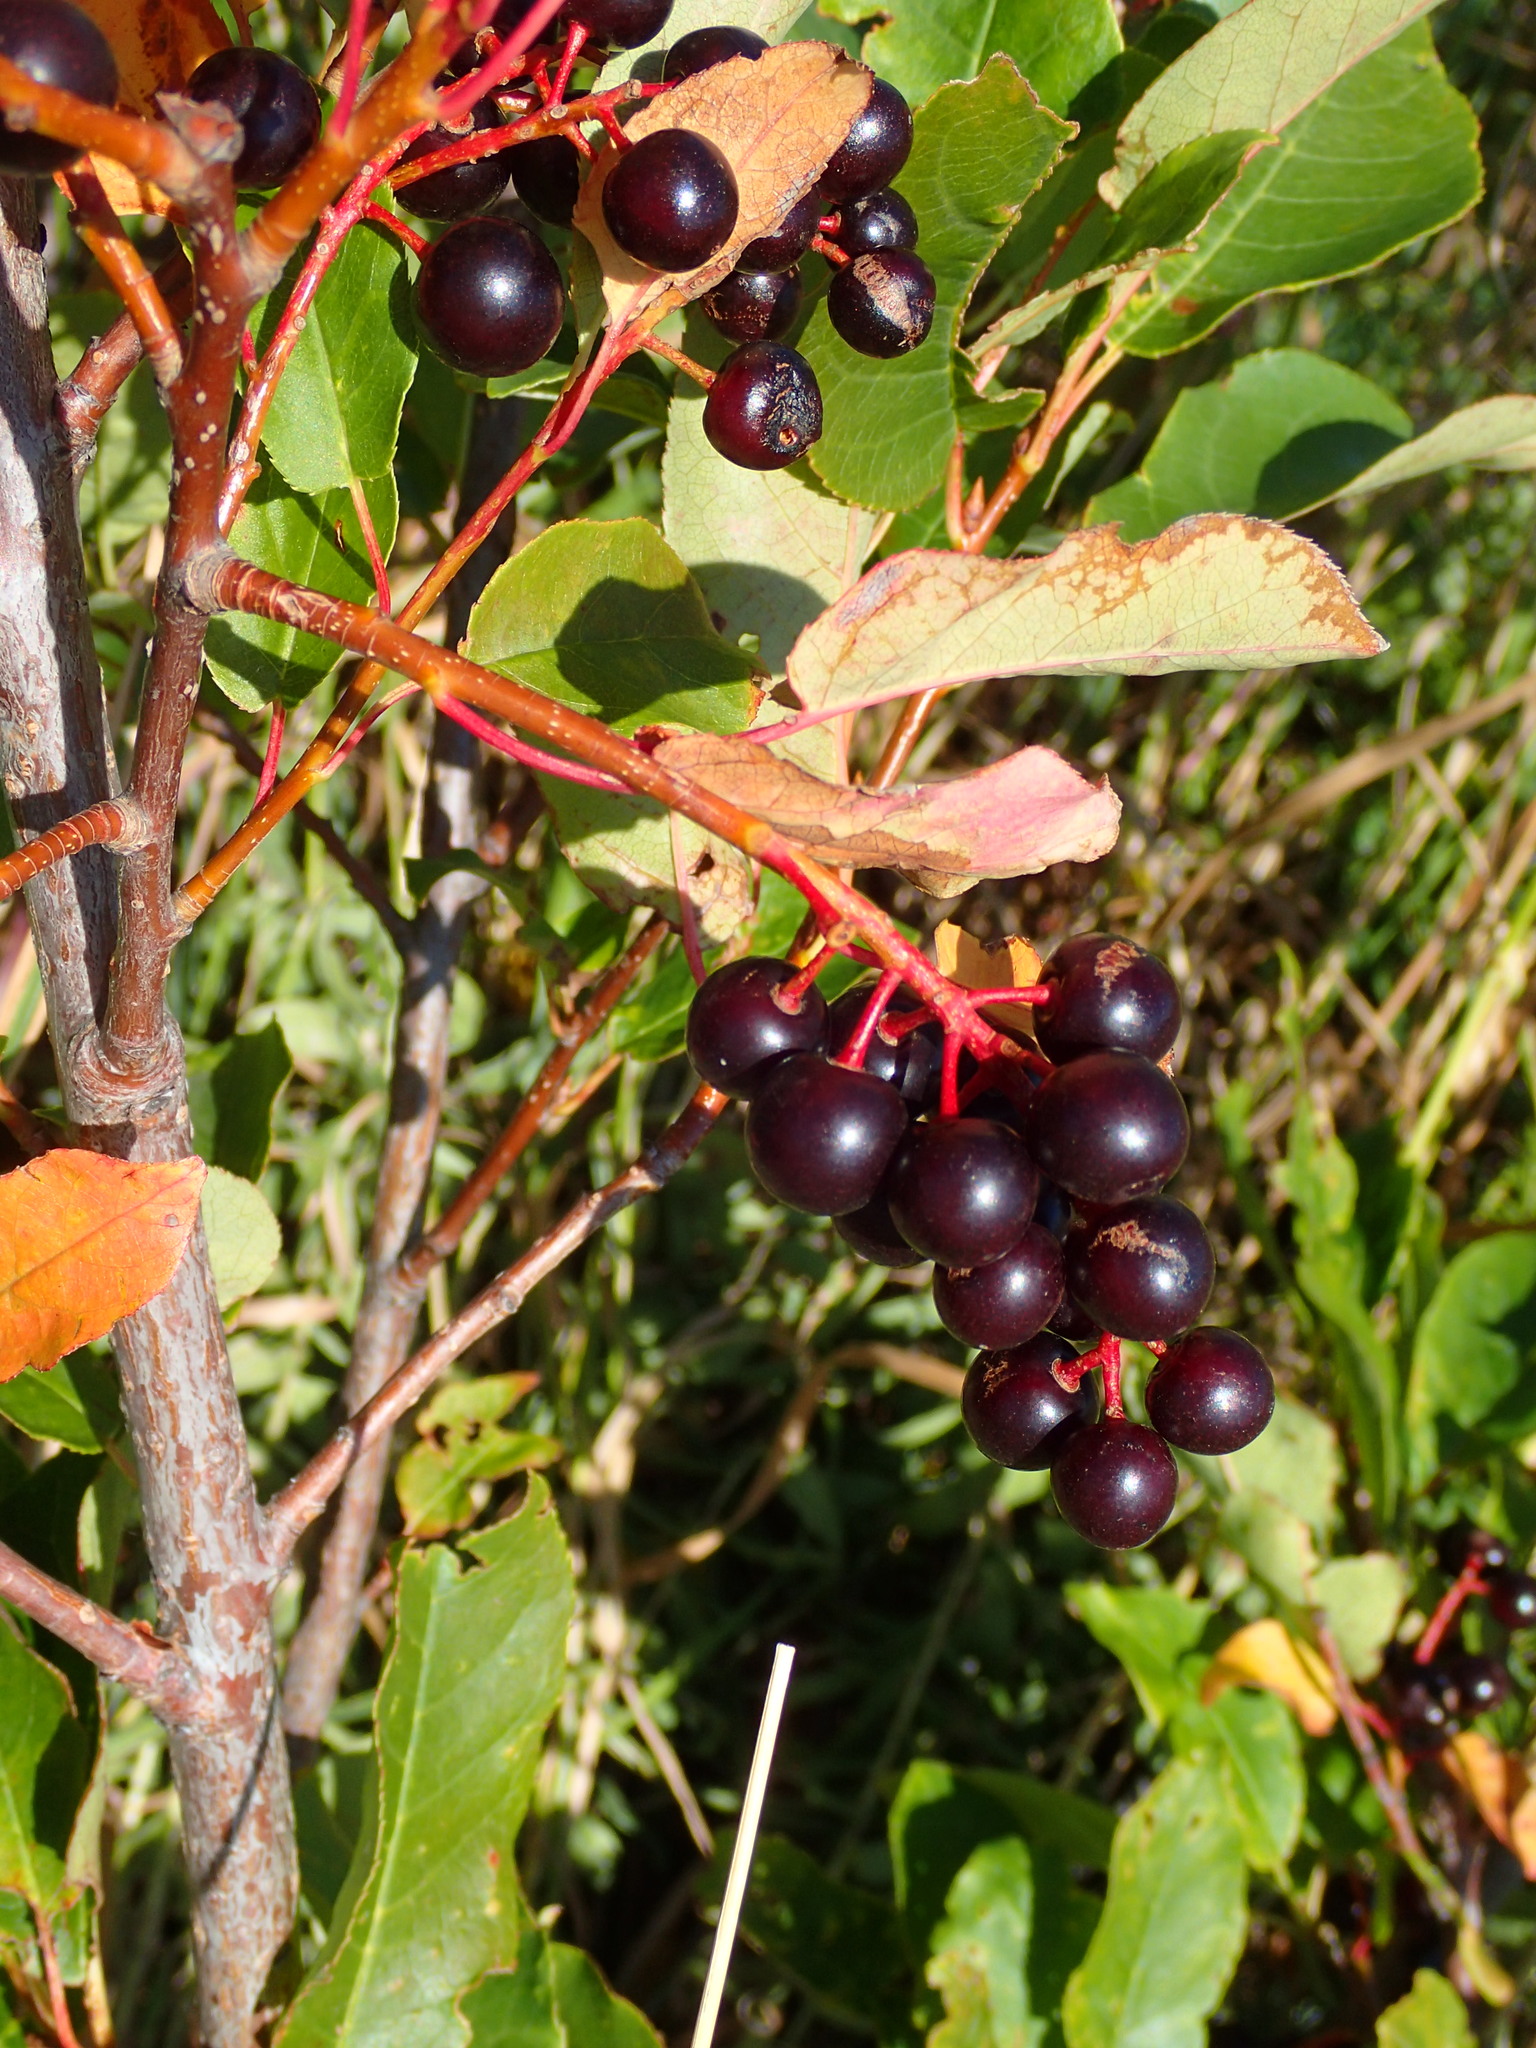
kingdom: Plantae
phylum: Tracheophyta
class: Magnoliopsida
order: Rosales
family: Rosaceae
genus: Prunus
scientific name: Prunus virginiana
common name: Chokecherry
